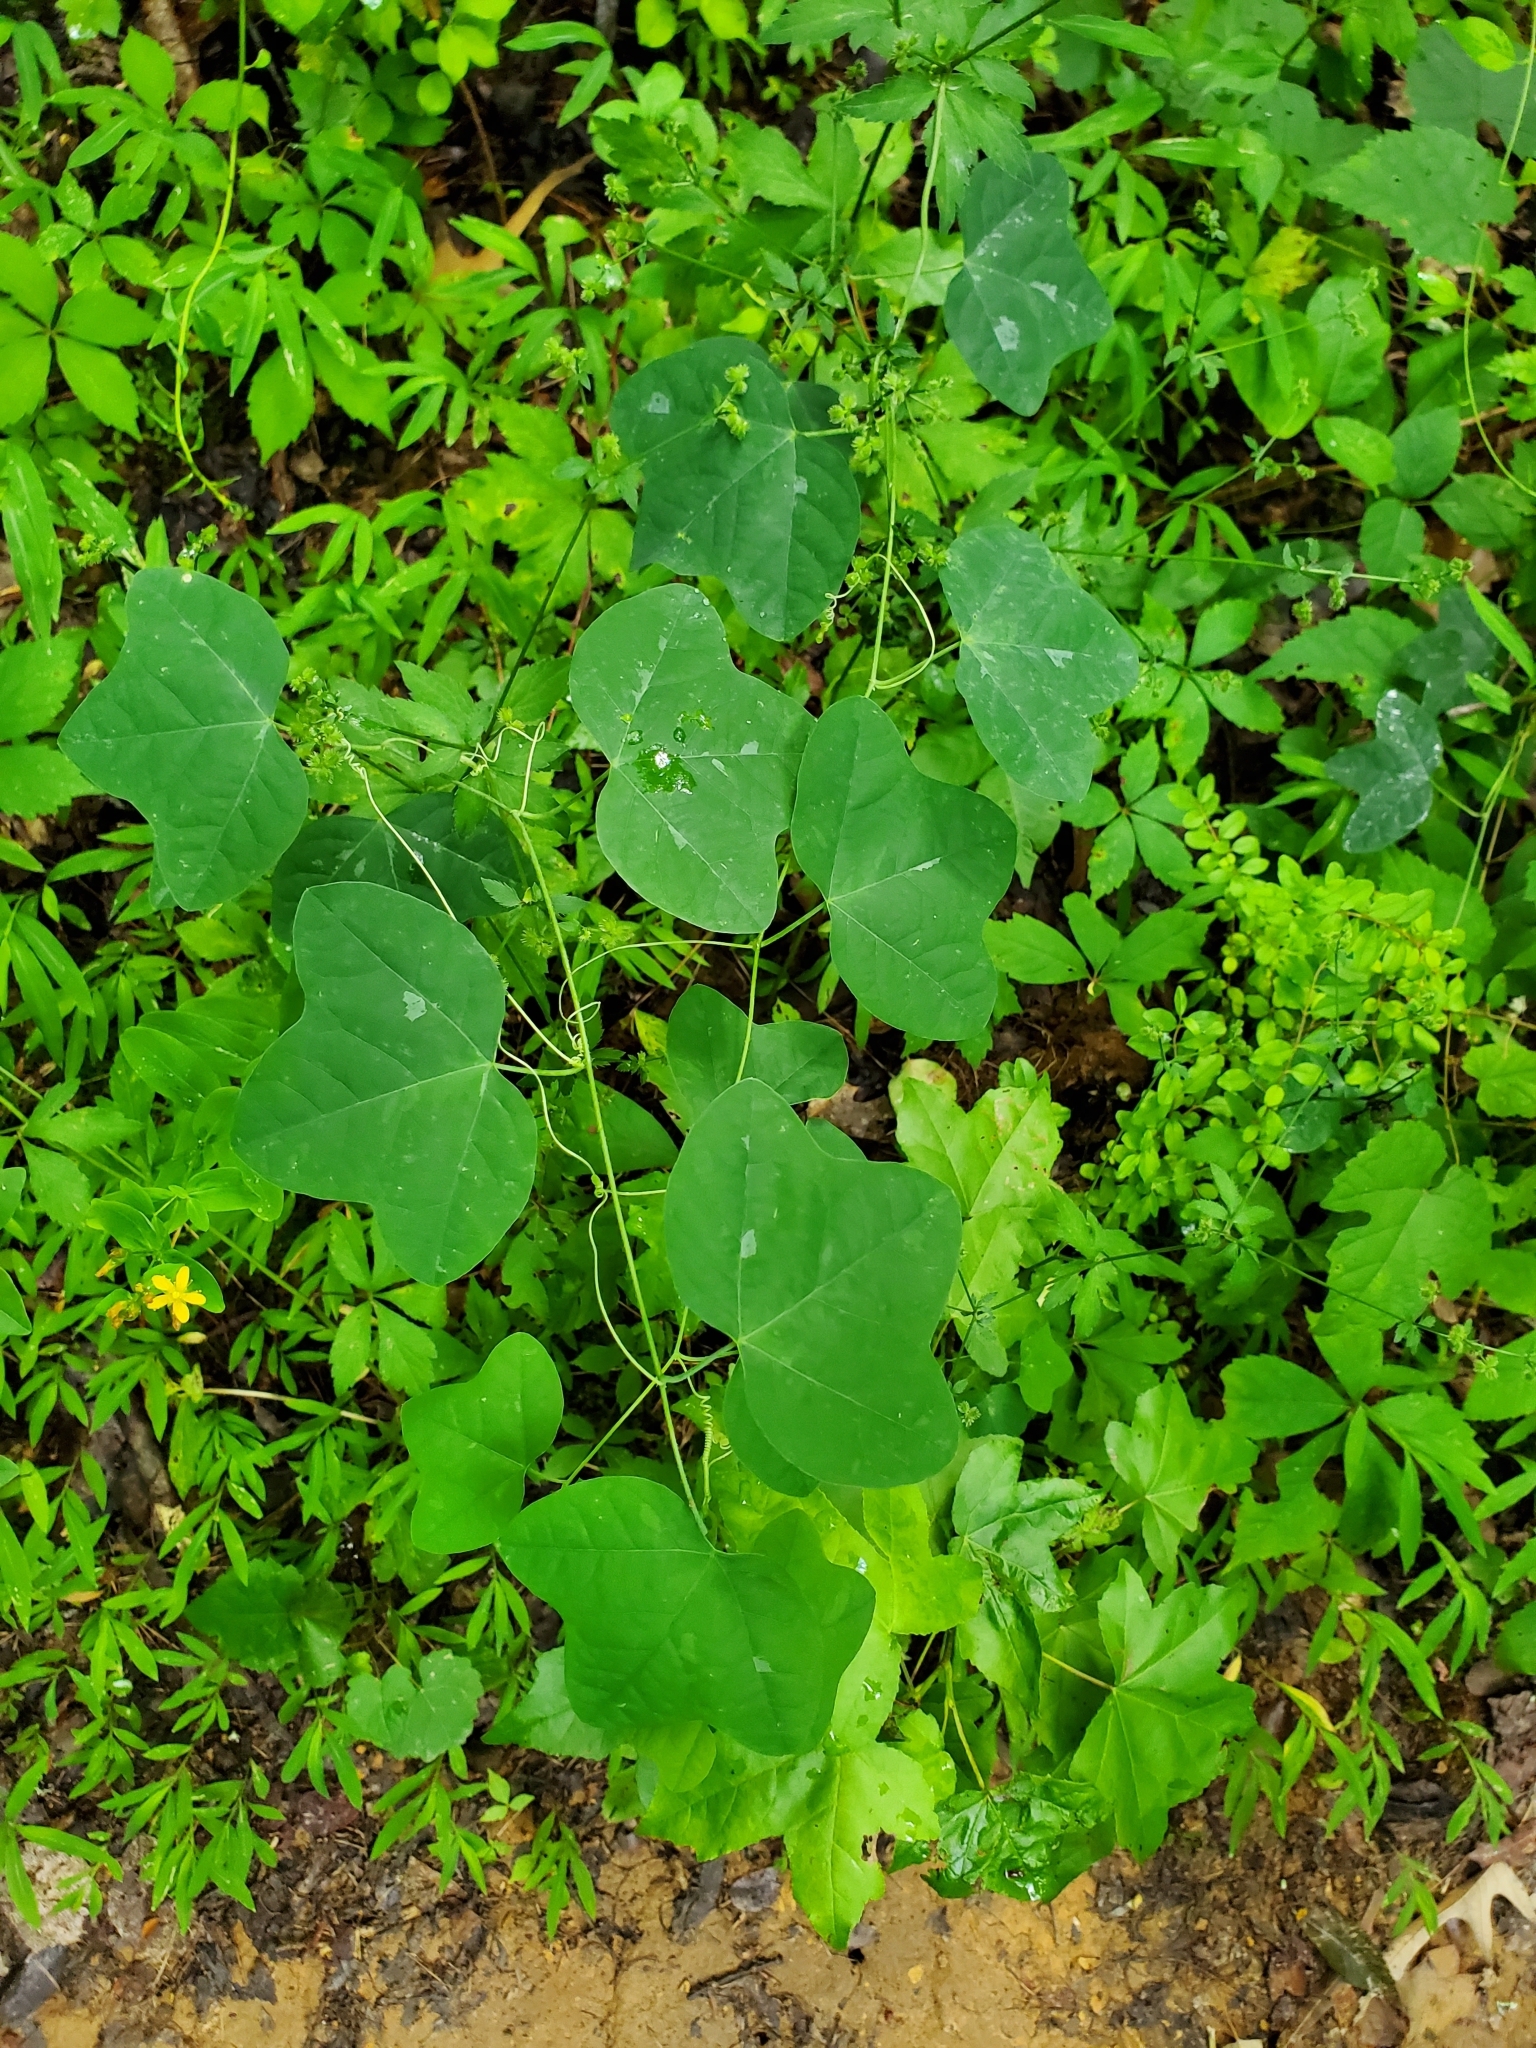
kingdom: Plantae
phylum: Tracheophyta
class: Magnoliopsida
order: Malpighiales
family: Passifloraceae
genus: Passiflora
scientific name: Passiflora lutea
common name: Yellow passionflower
